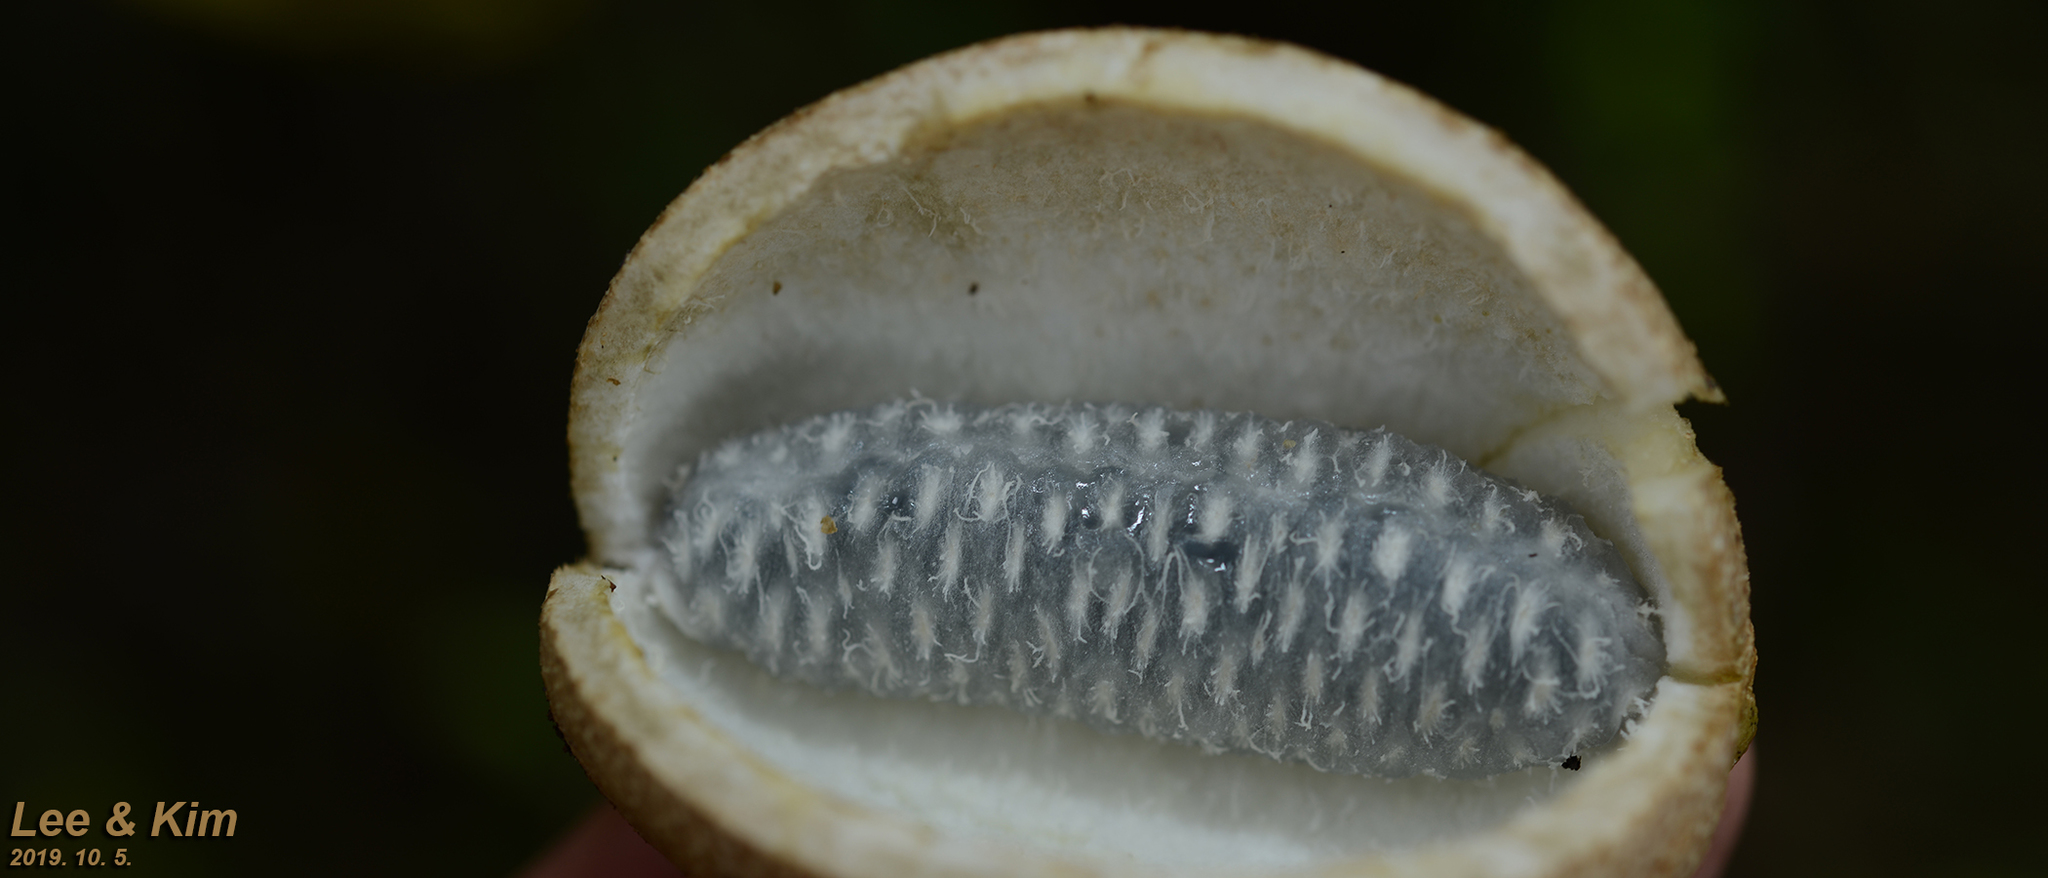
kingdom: Plantae
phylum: Tracheophyta
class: Magnoliopsida
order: Ranunculales
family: Lardizabalaceae
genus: Akebia
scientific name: Akebia quinata
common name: Five-leaf akebia
